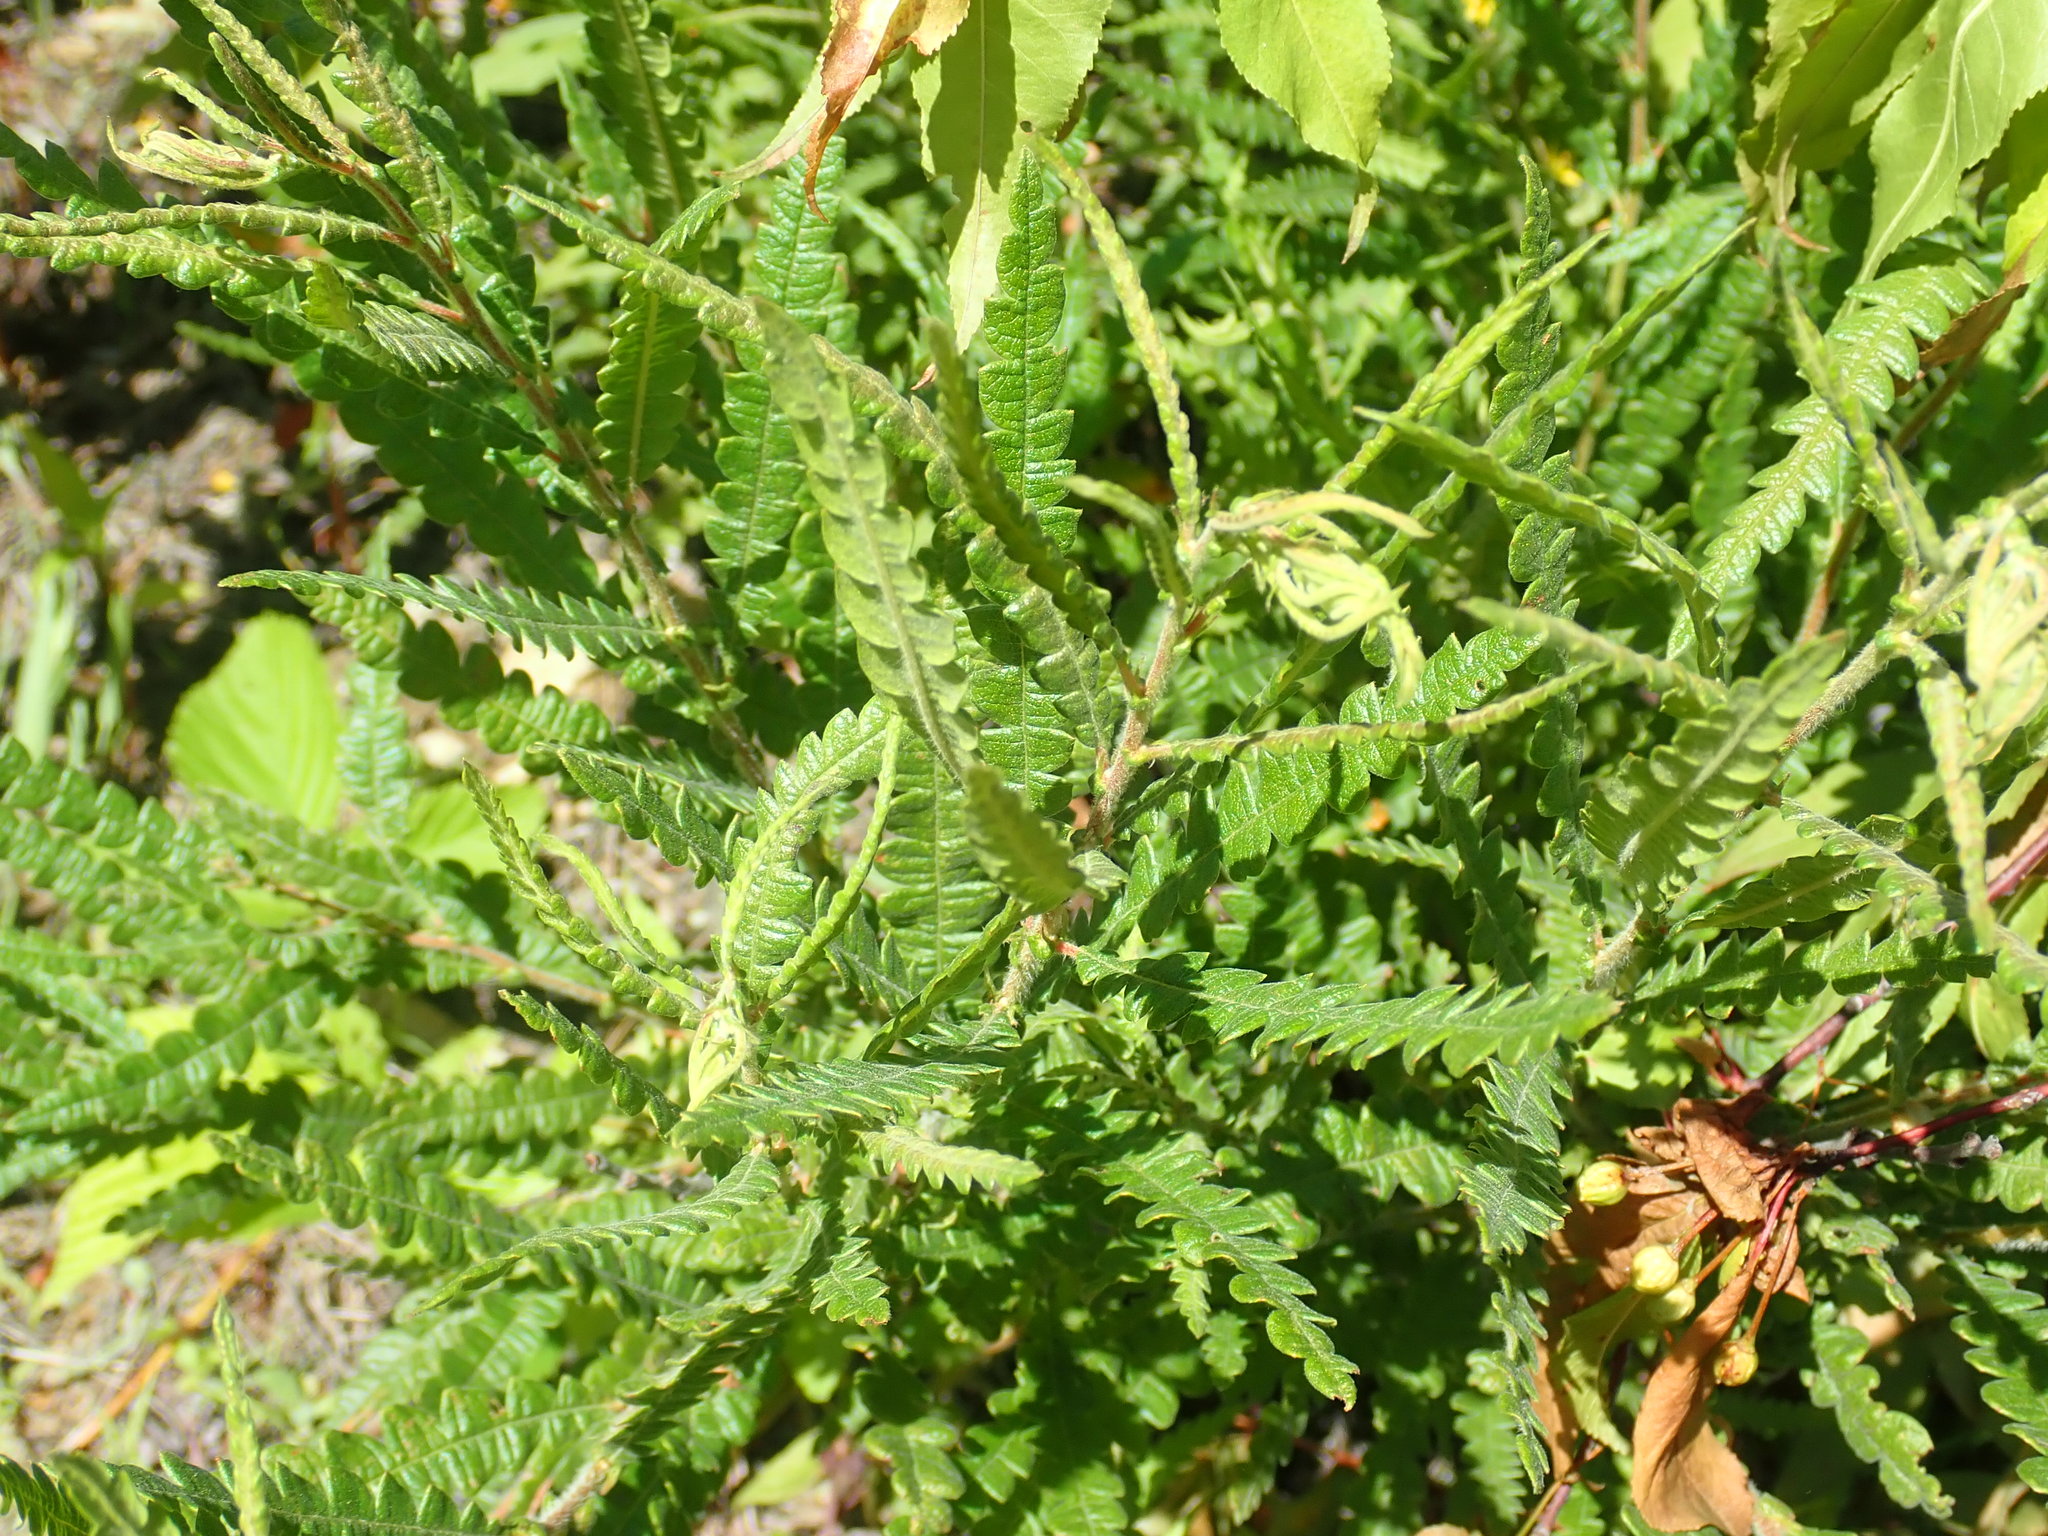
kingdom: Plantae
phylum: Tracheophyta
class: Magnoliopsida
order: Fagales
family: Myricaceae
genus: Comptonia
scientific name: Comptonia peregrina
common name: Sweet-fern
